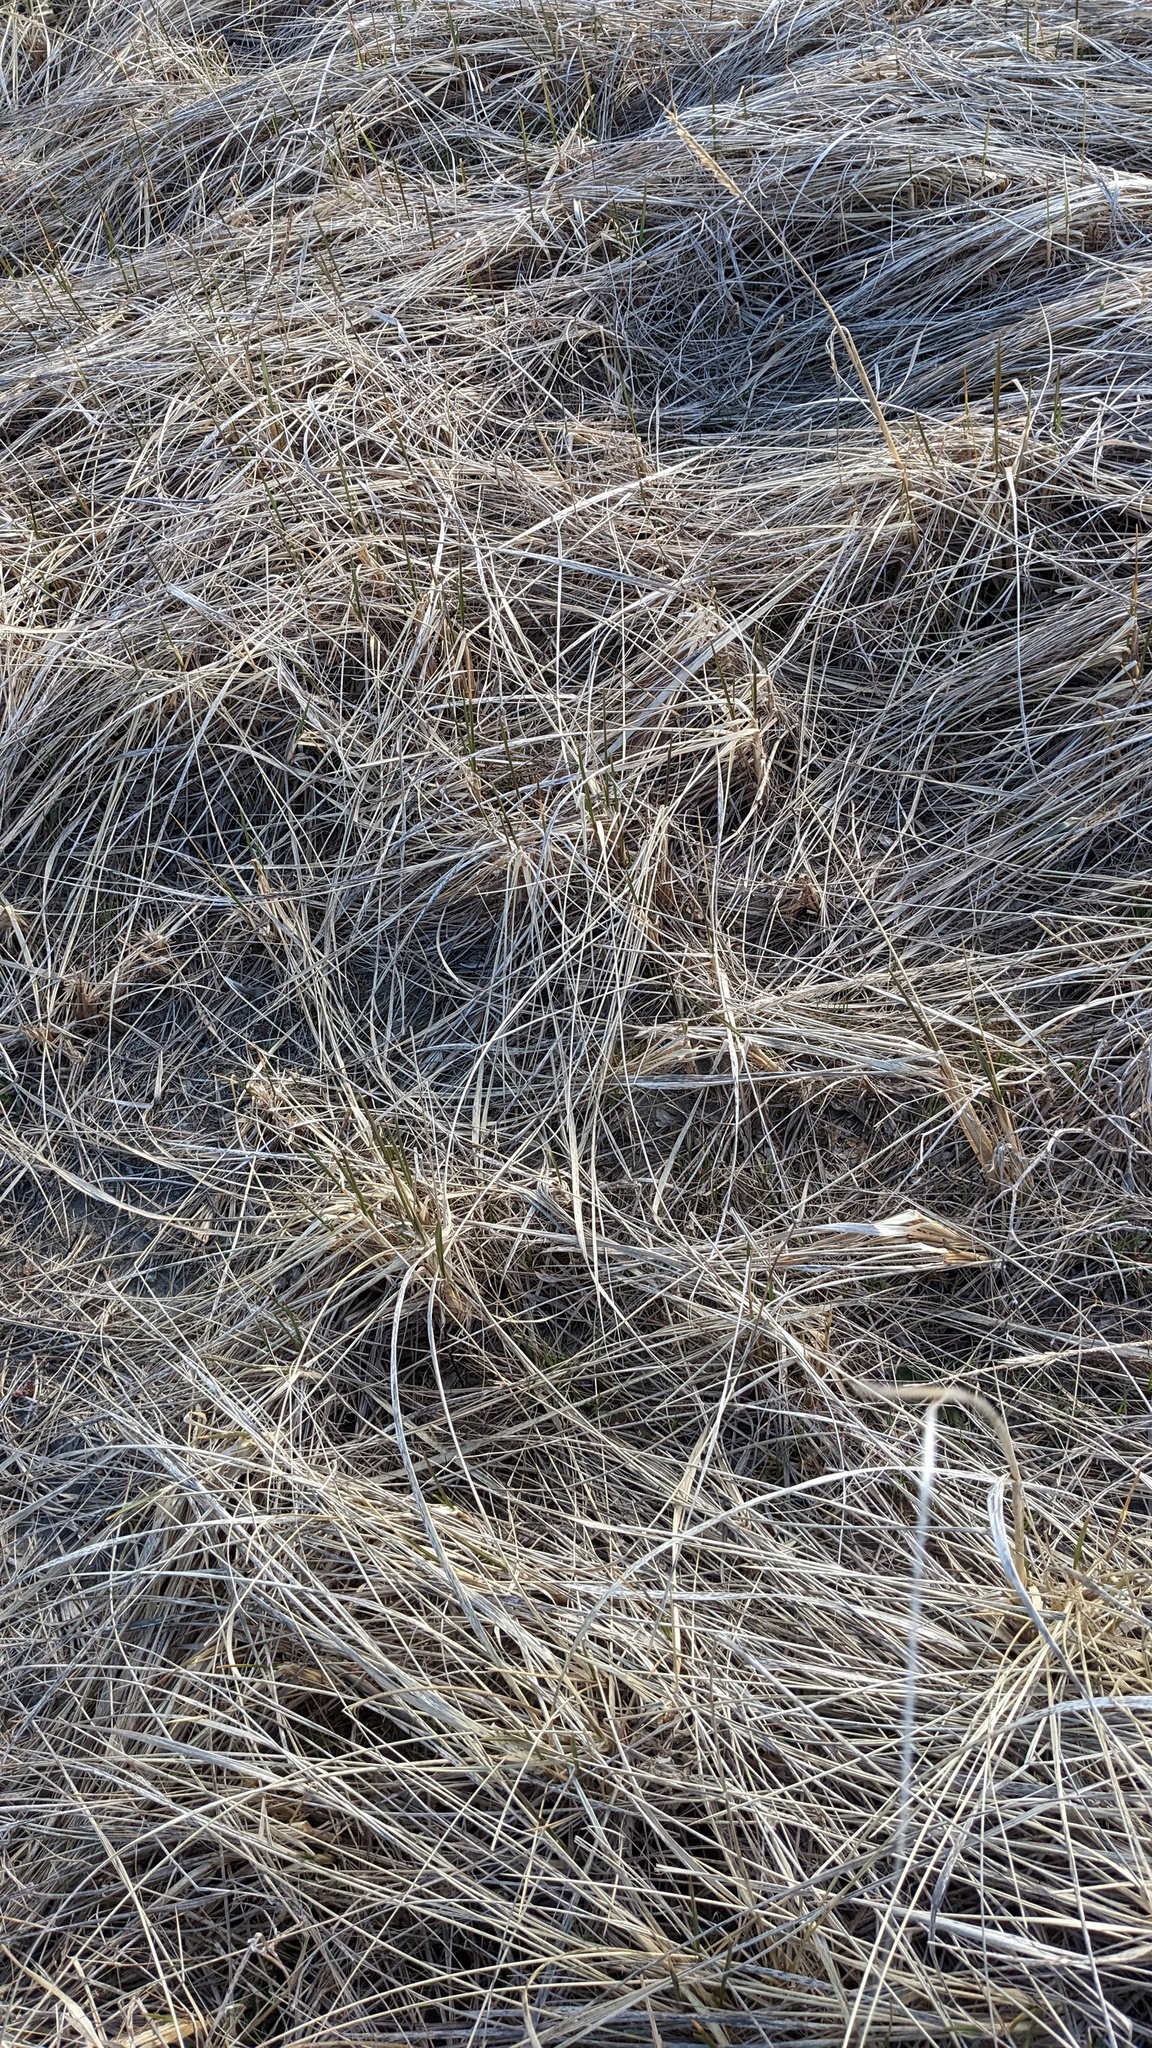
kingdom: Plantae
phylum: Tracheophyta
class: Liliopsida
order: Poales
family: Poaceae
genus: Calamagrostis
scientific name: Calamagrostis breviligulata
